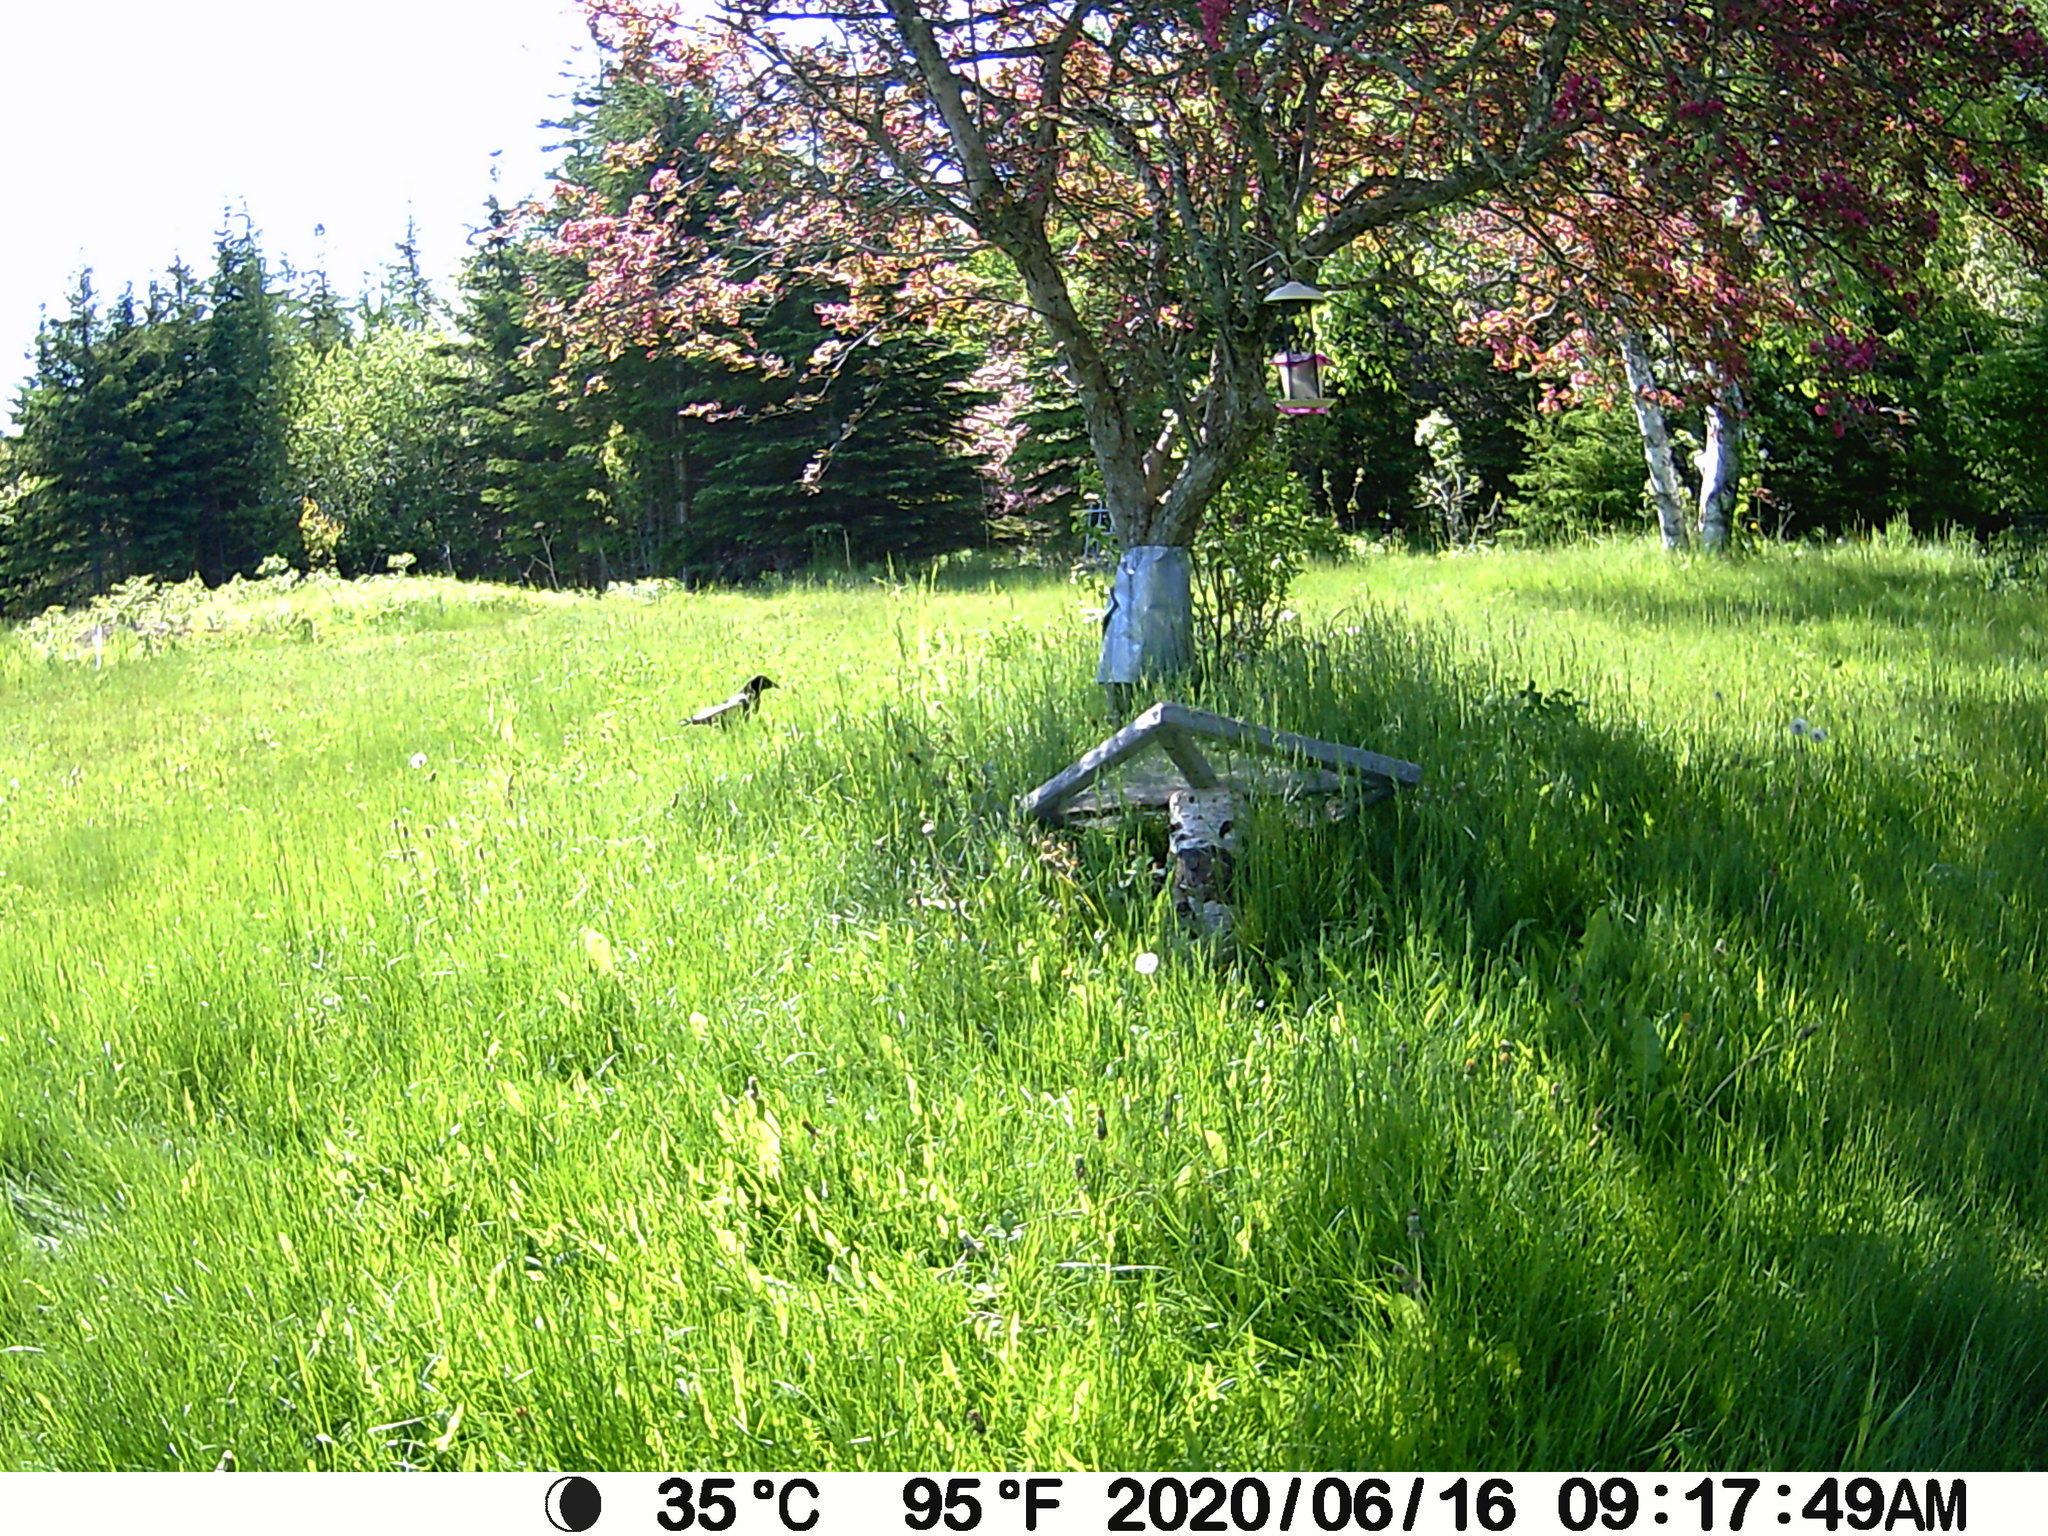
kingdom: Animalia
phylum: Chordata
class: Aves
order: Passeriformes
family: Corvidae
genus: Corvus
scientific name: Corvus brachyrhynchos
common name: American crow
